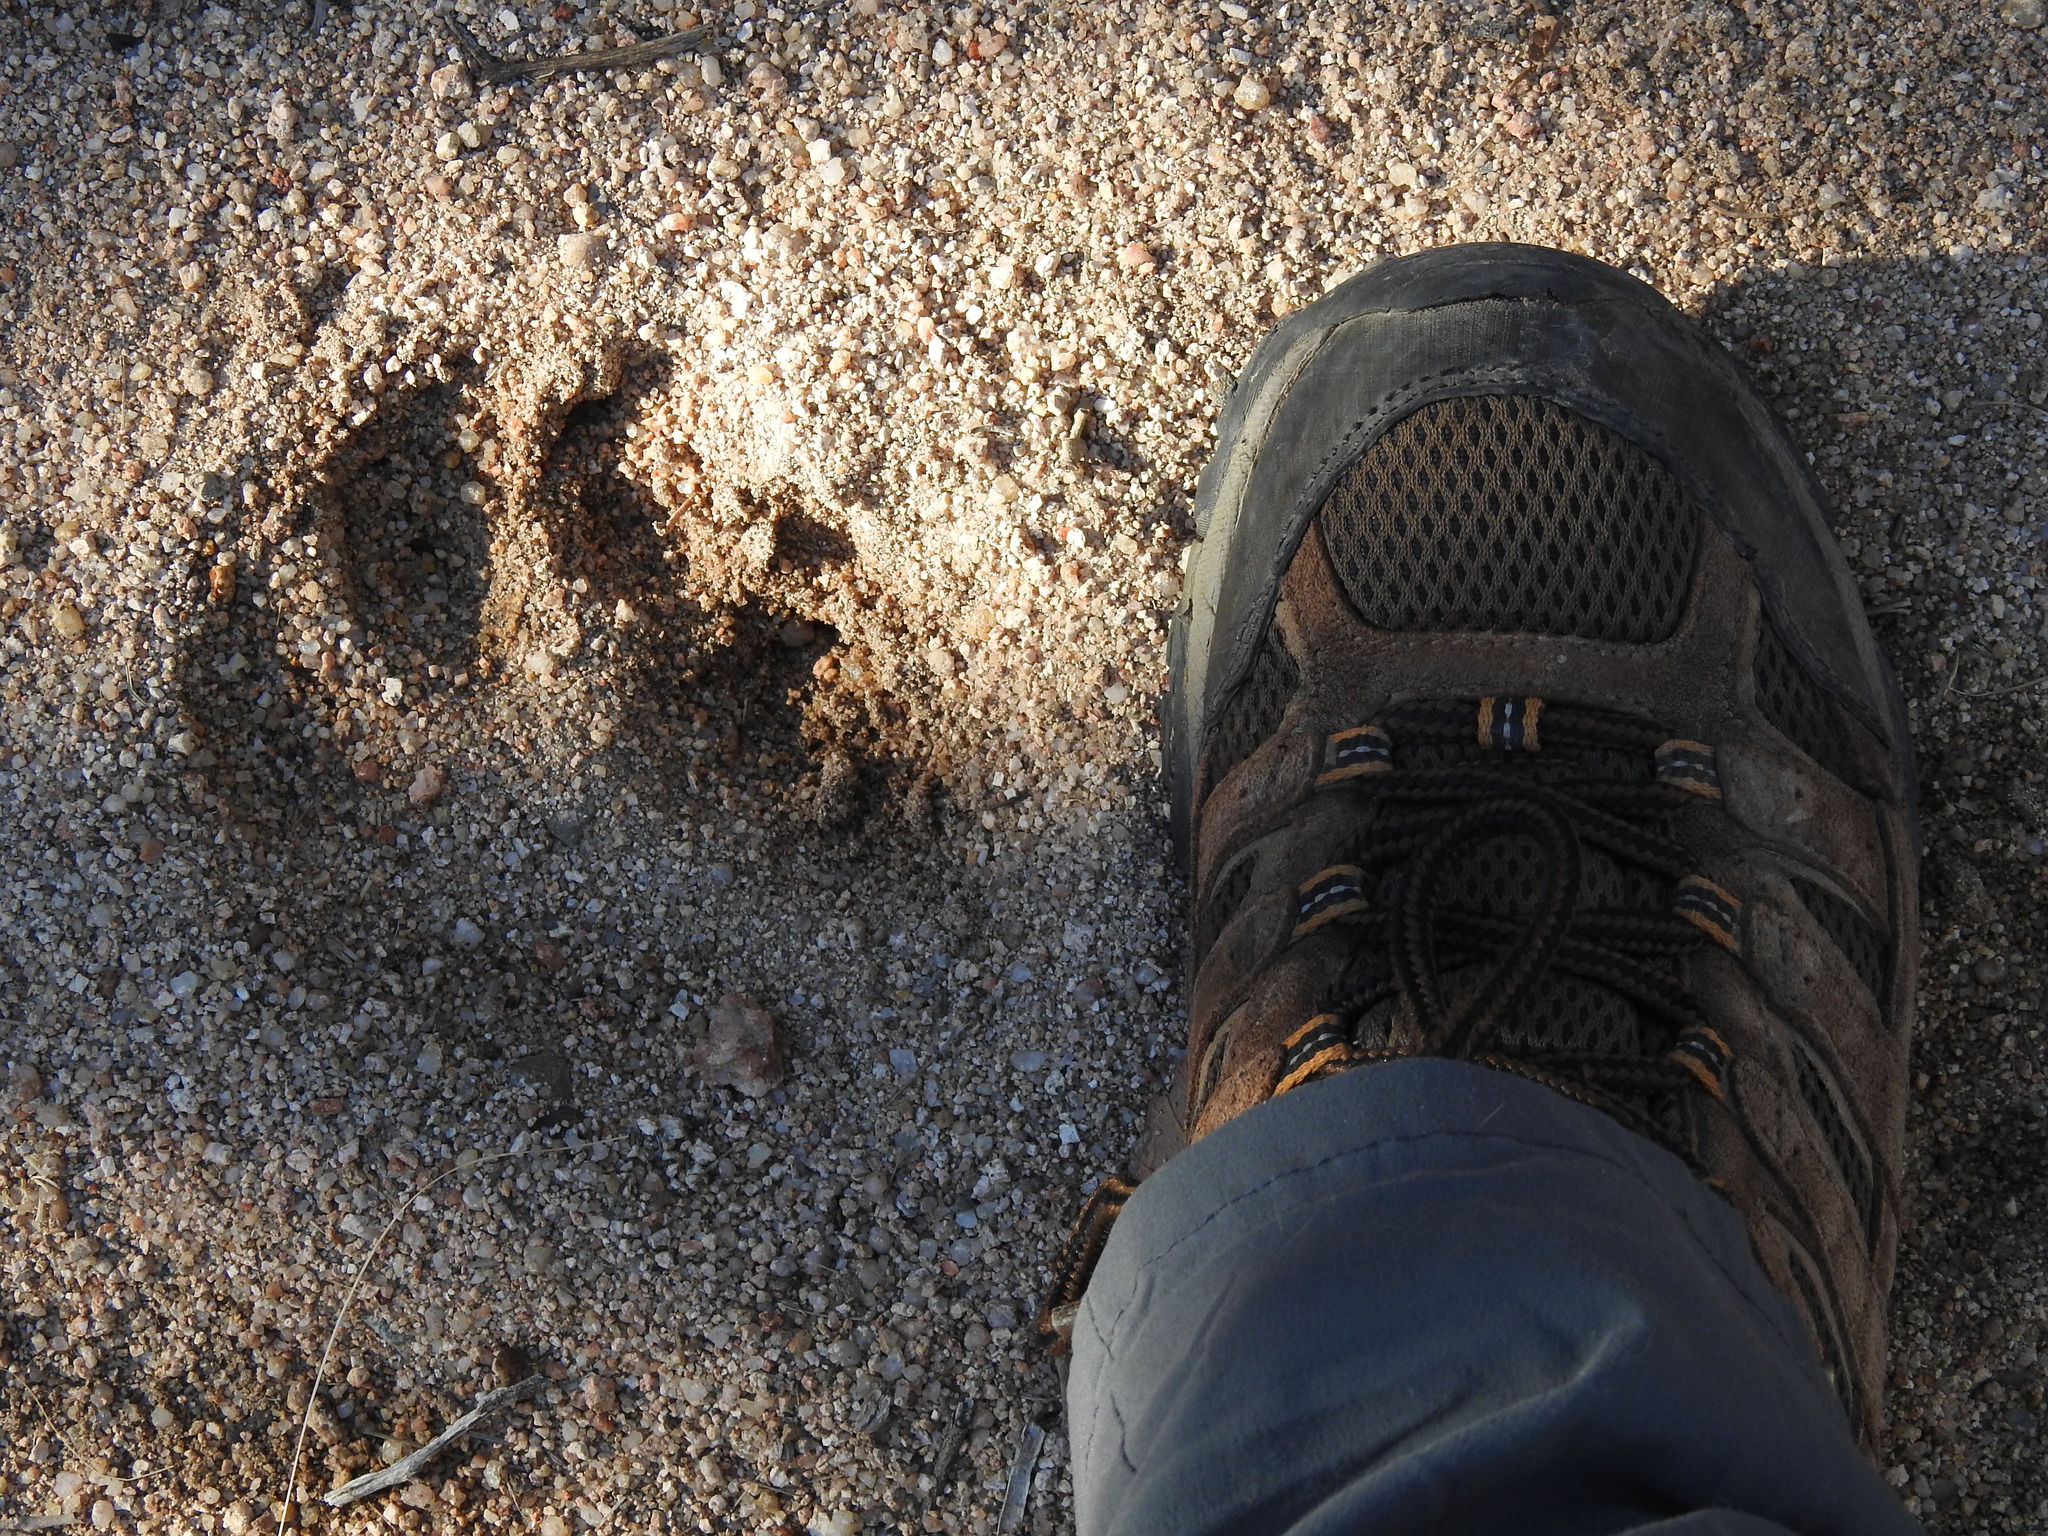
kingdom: Animalia
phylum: Chordata
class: Mammalia
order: Carnivora
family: Felidae
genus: Puma
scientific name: Puma concolor
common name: Puma
